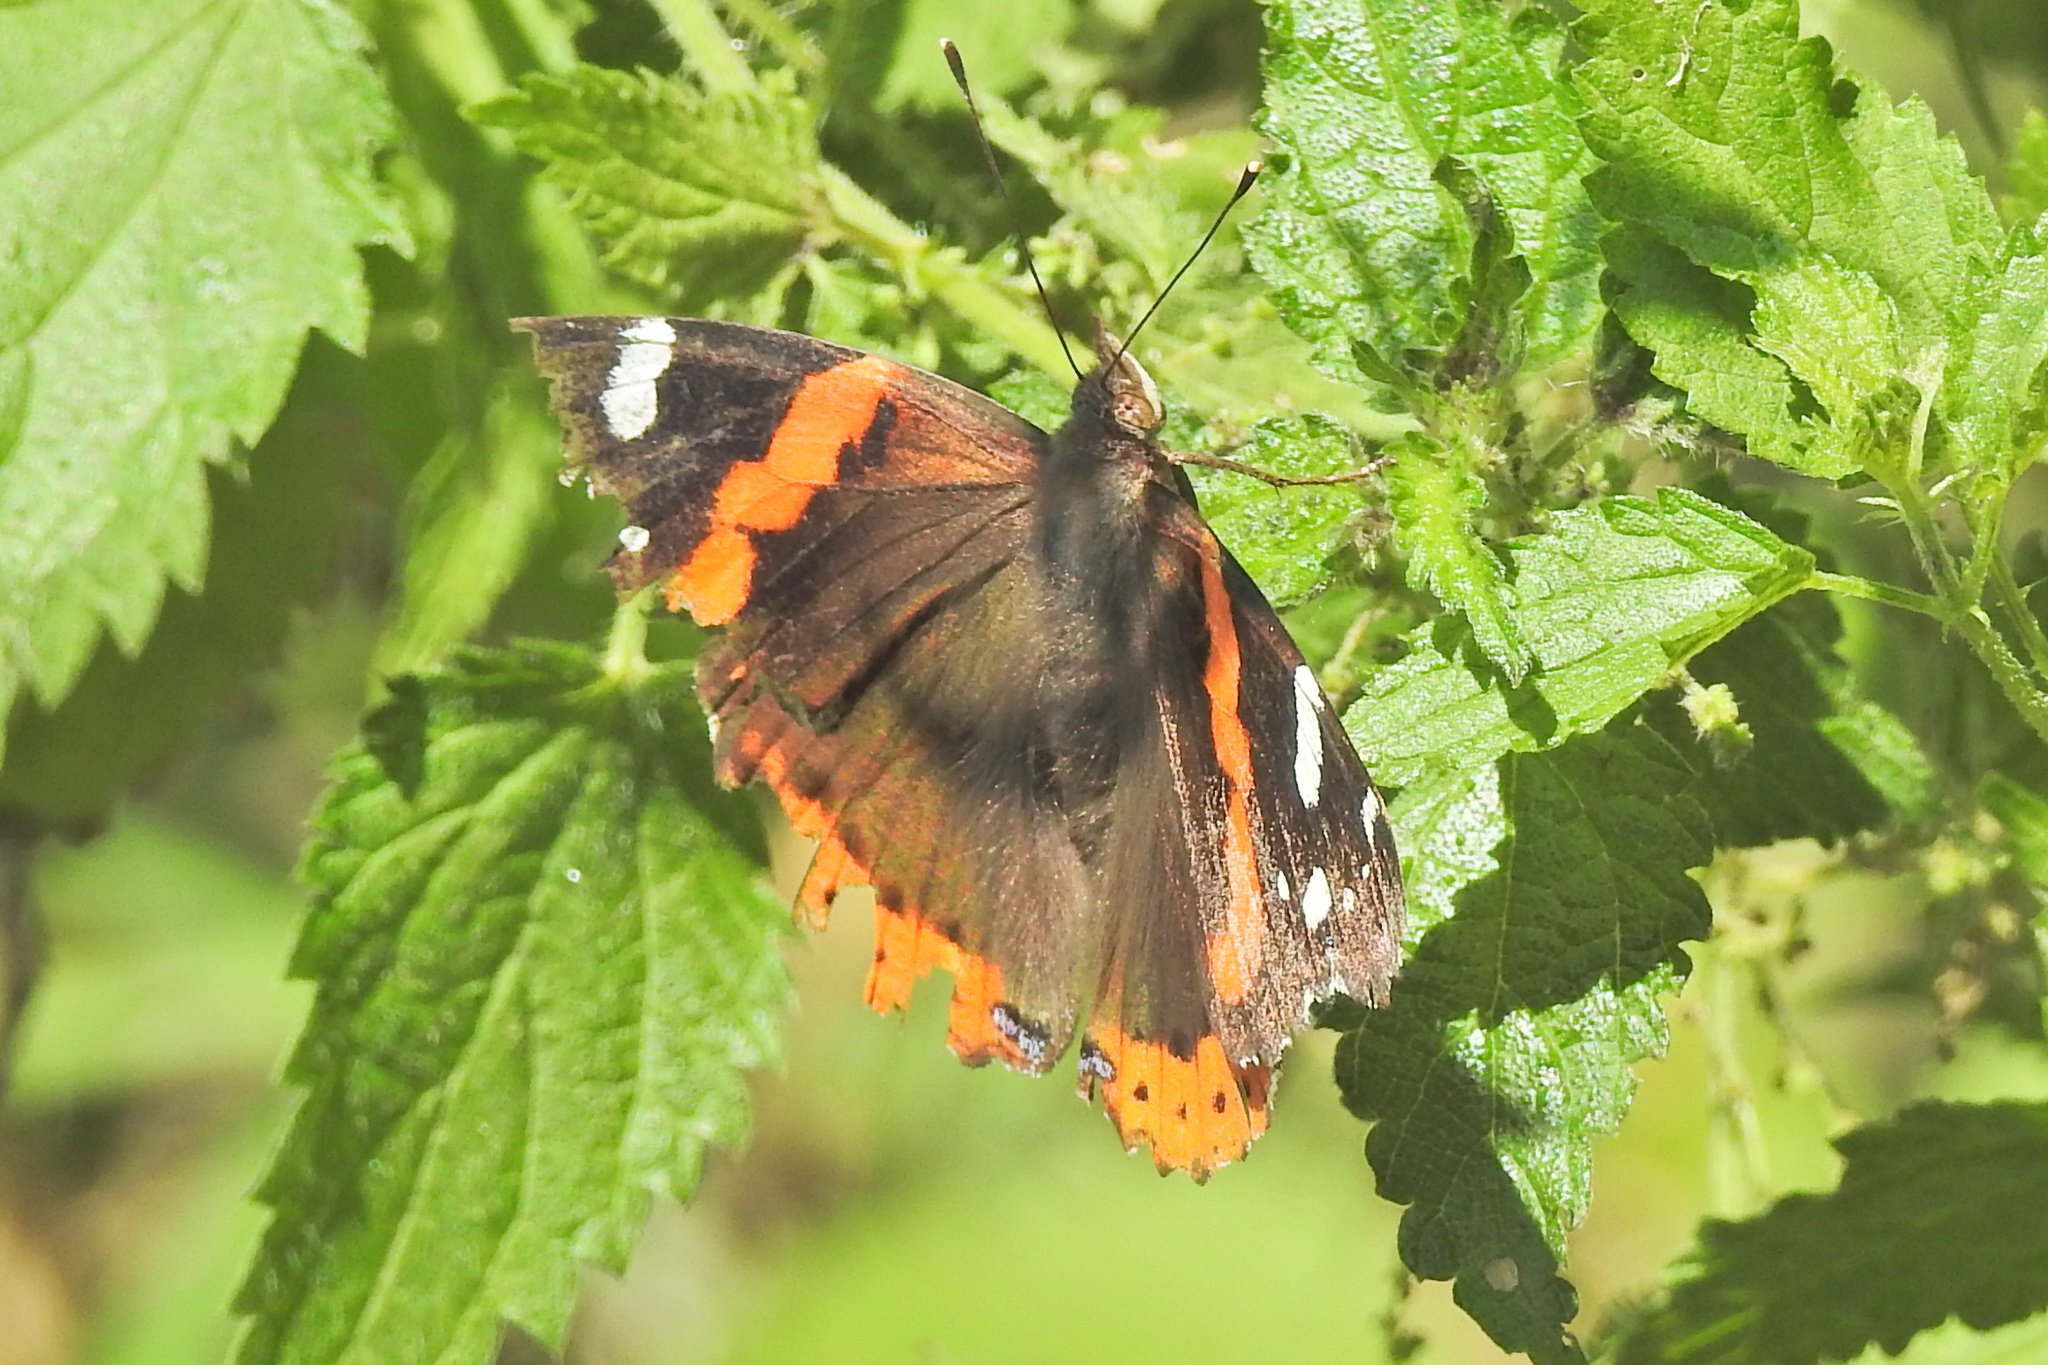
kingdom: Animalia
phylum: Arthropoda
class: Insecta
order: Lepidoptera
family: Nymphalidae
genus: Vanessa
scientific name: Vanessa atalanta
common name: Red admiral
